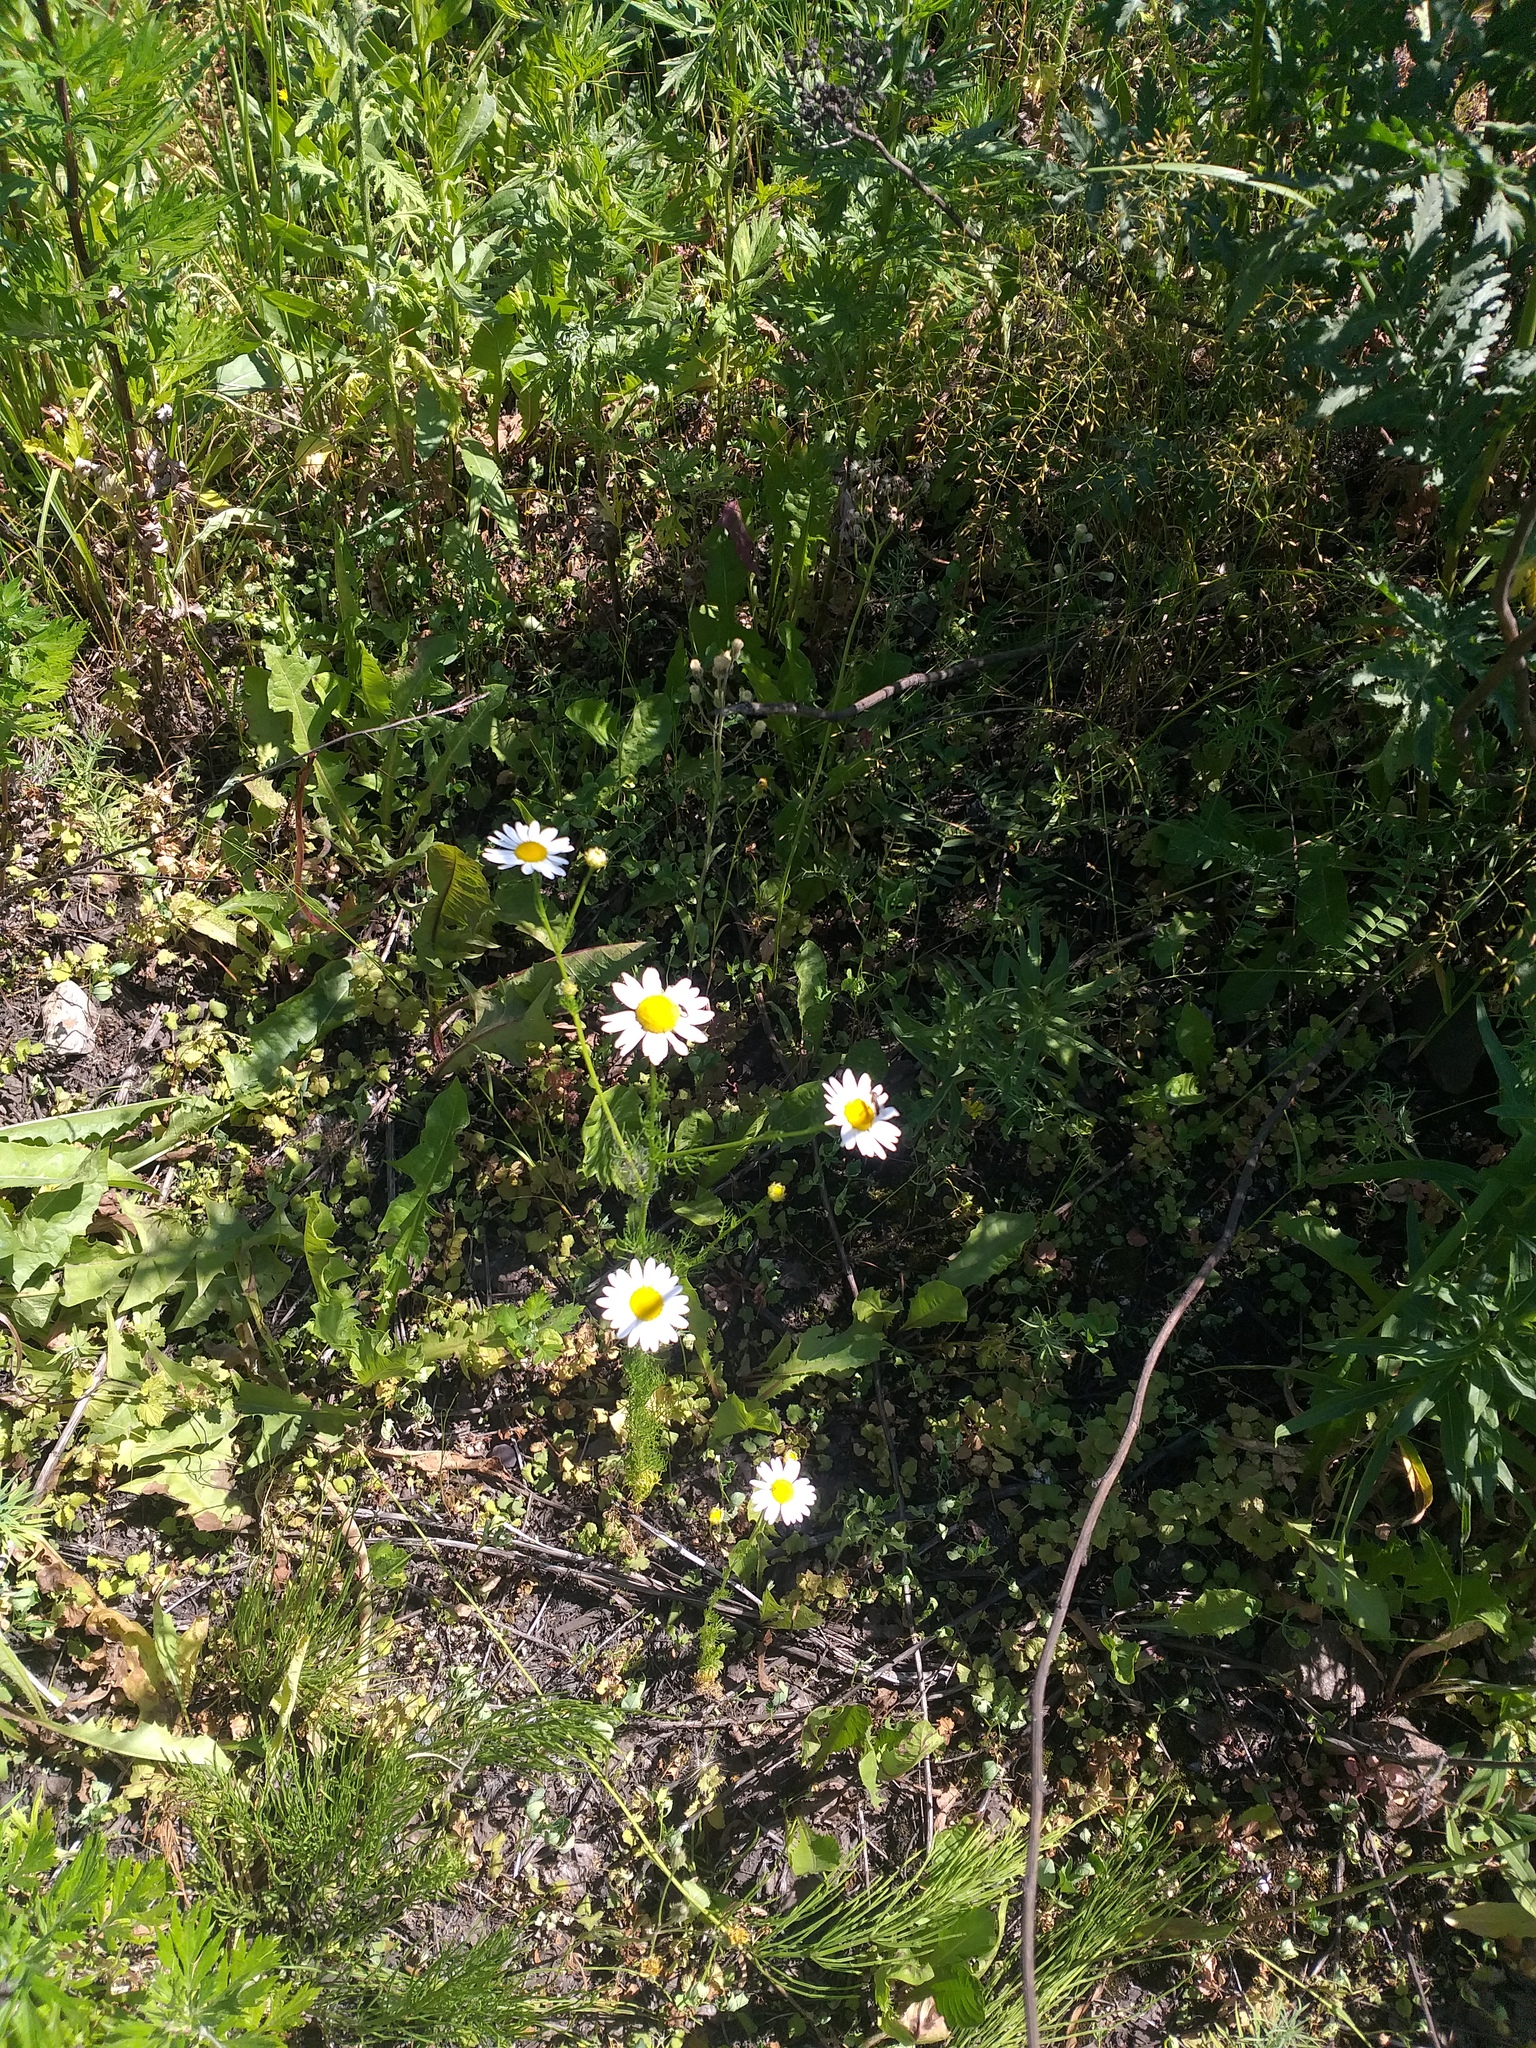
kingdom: Plantae
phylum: Tracheophyta
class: Magnoliopsida
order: Asterales
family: Asteraceae
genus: Tripleurospermum
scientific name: Tripleurospermum inodorum
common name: Scentless mayweed
